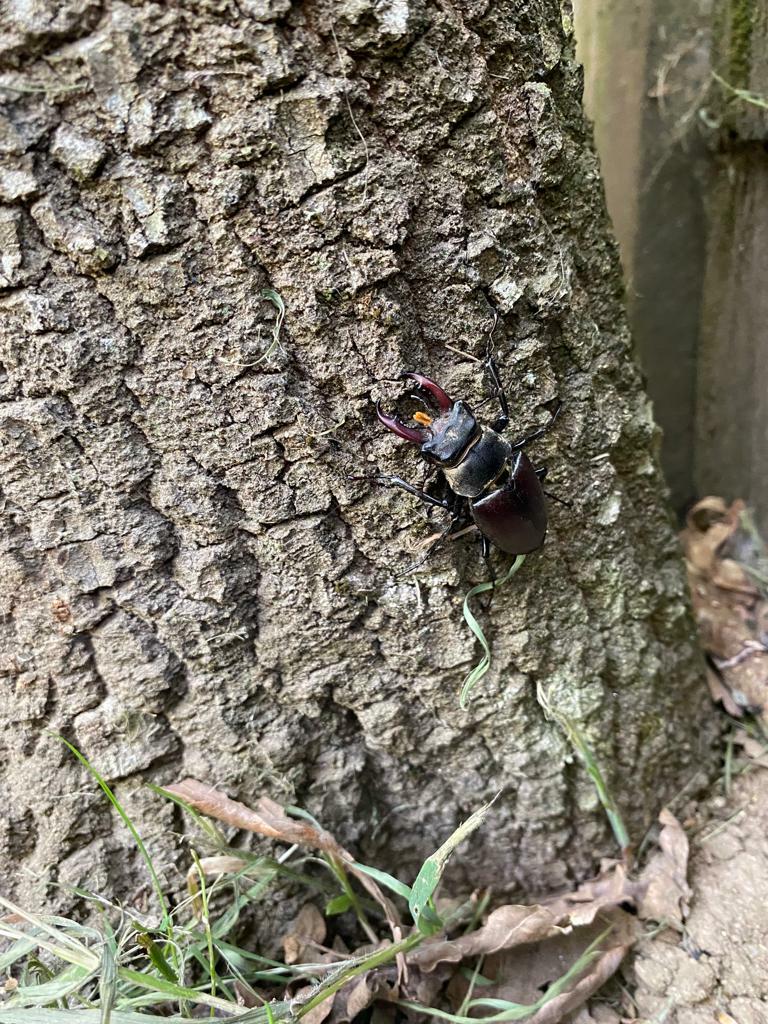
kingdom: Animalia
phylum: Arthropoda
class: Insecta
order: Coleoptera
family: Lucanidae
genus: Lucanus
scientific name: Lucanus cervus
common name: Stag beetle
